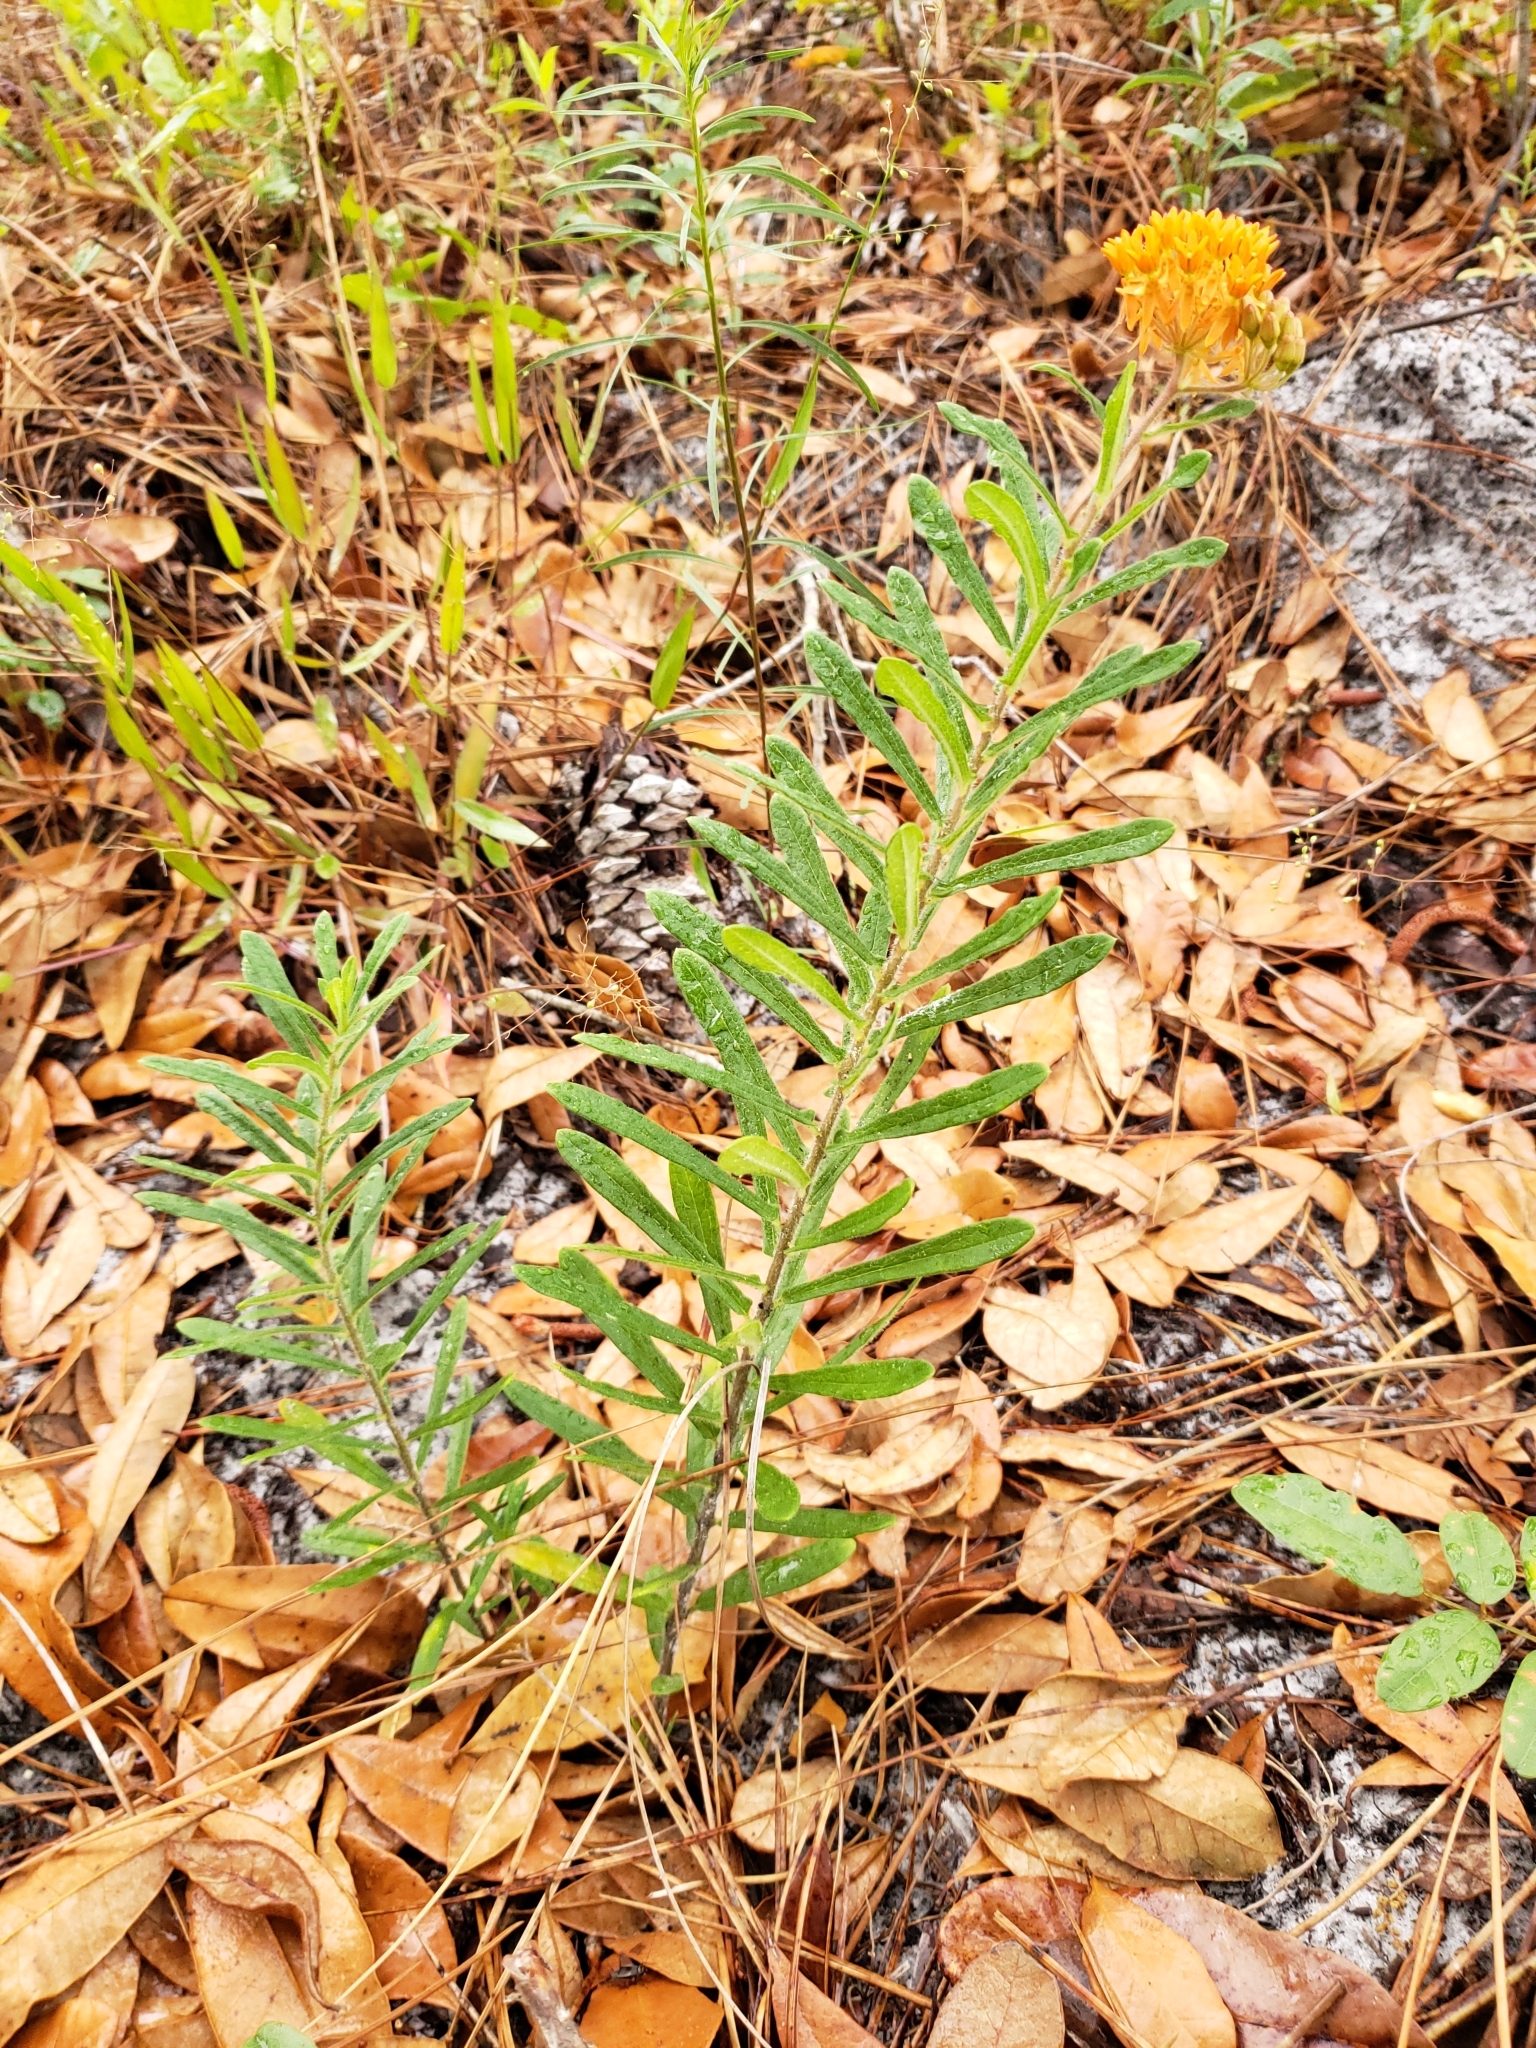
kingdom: Plantae
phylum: Tracheophyta
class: Magnoliopsida
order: Gentianales
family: Apocynaceae
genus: Asclepias
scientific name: Asclepias tuberosa
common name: Butterfly milkweed
